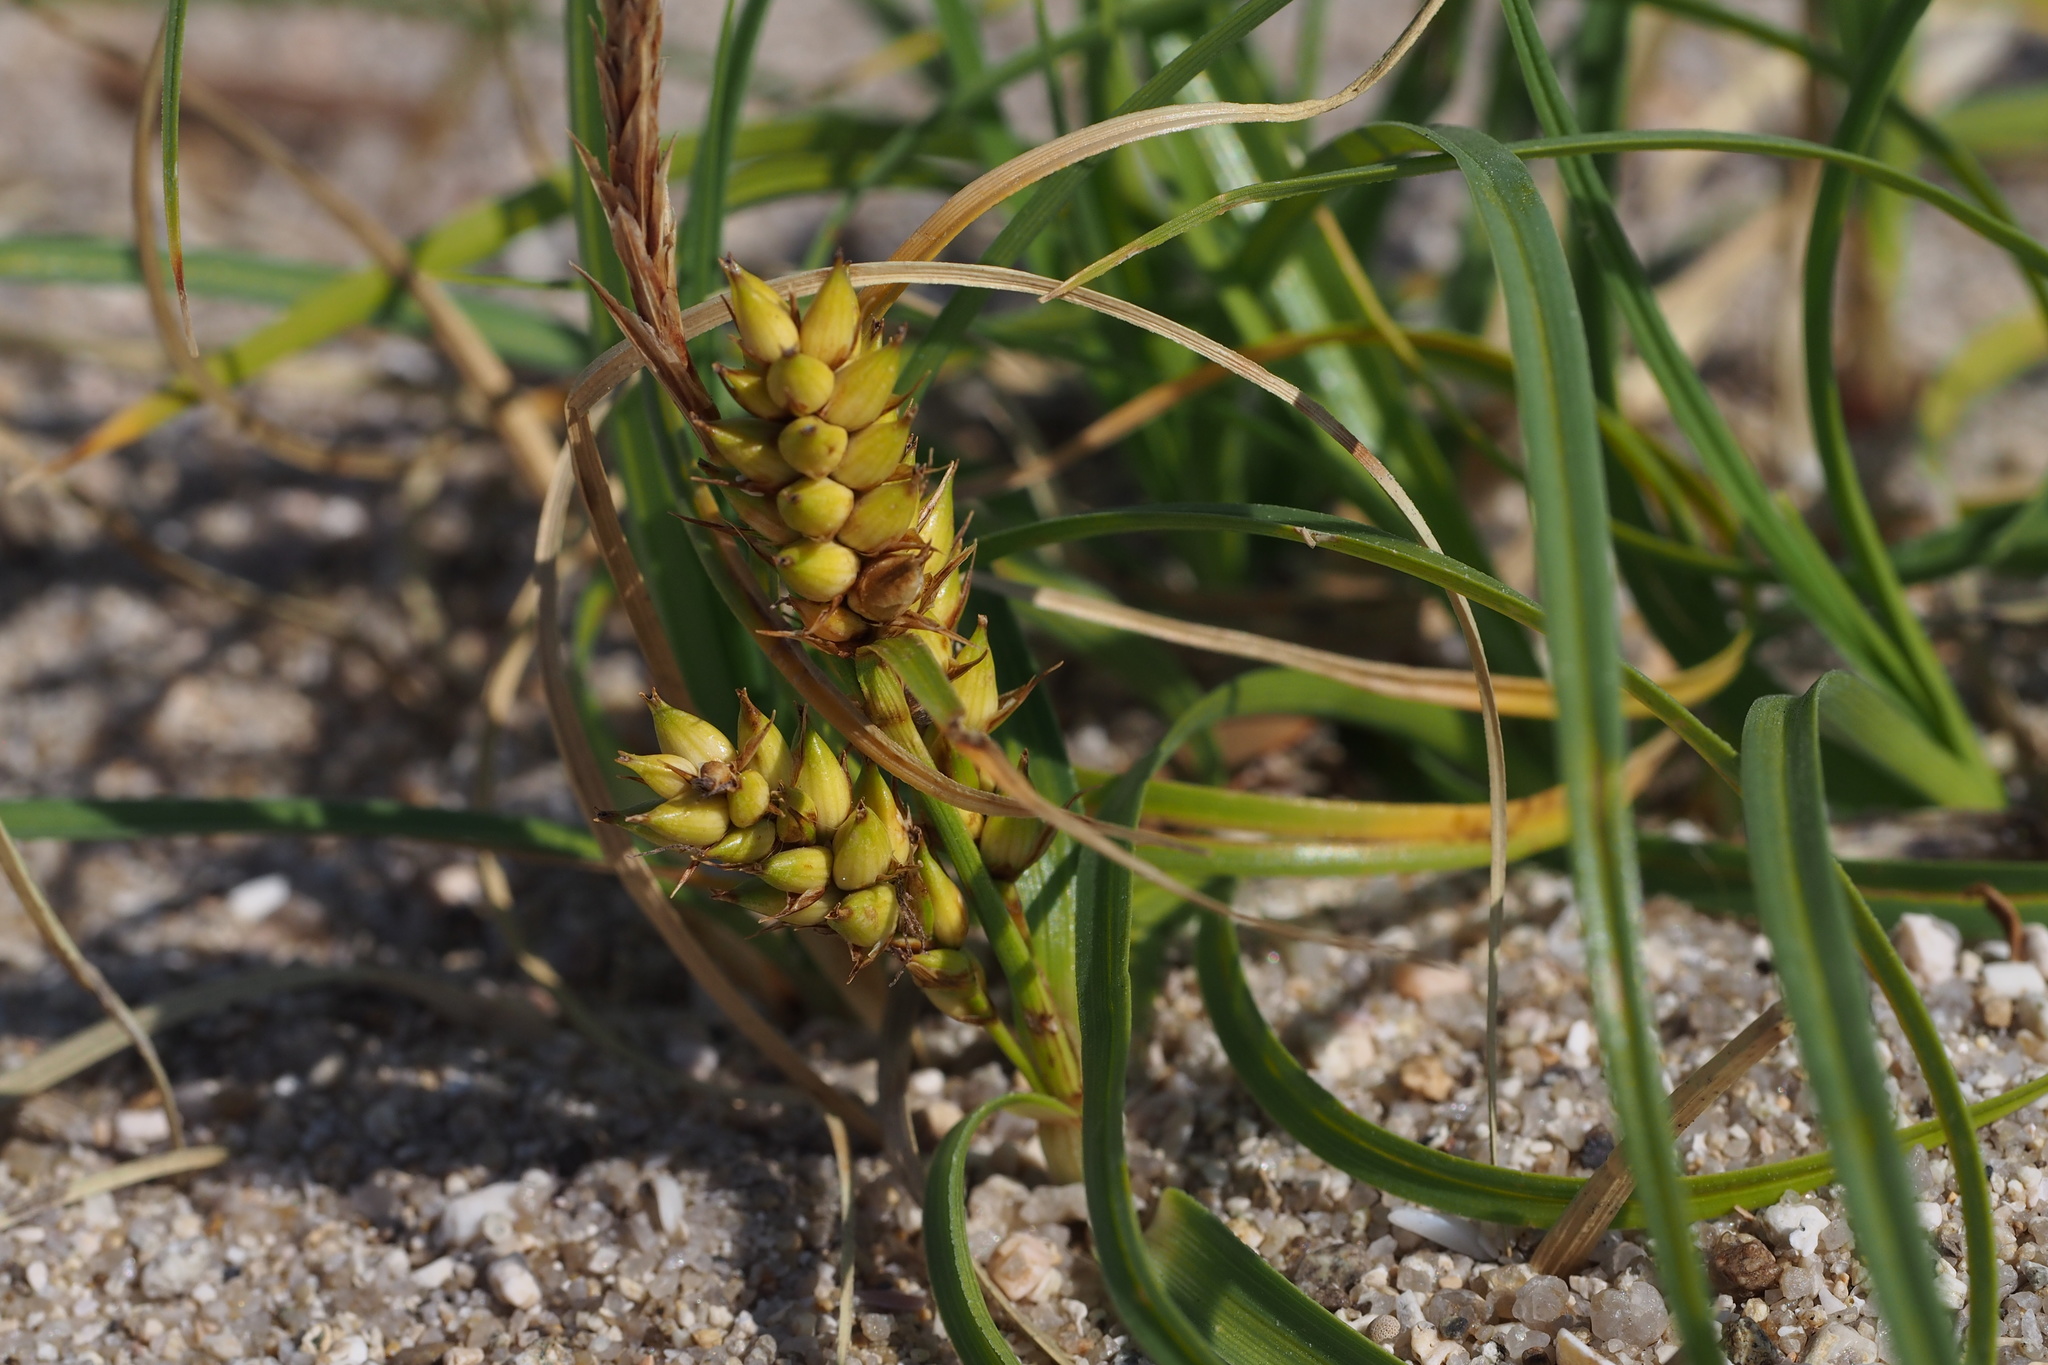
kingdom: Plantae
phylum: Tracheophyta
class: Liliopsida
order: Poales
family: Cyperaceae
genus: Carex
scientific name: Carex pumila
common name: Dwarf sedge
